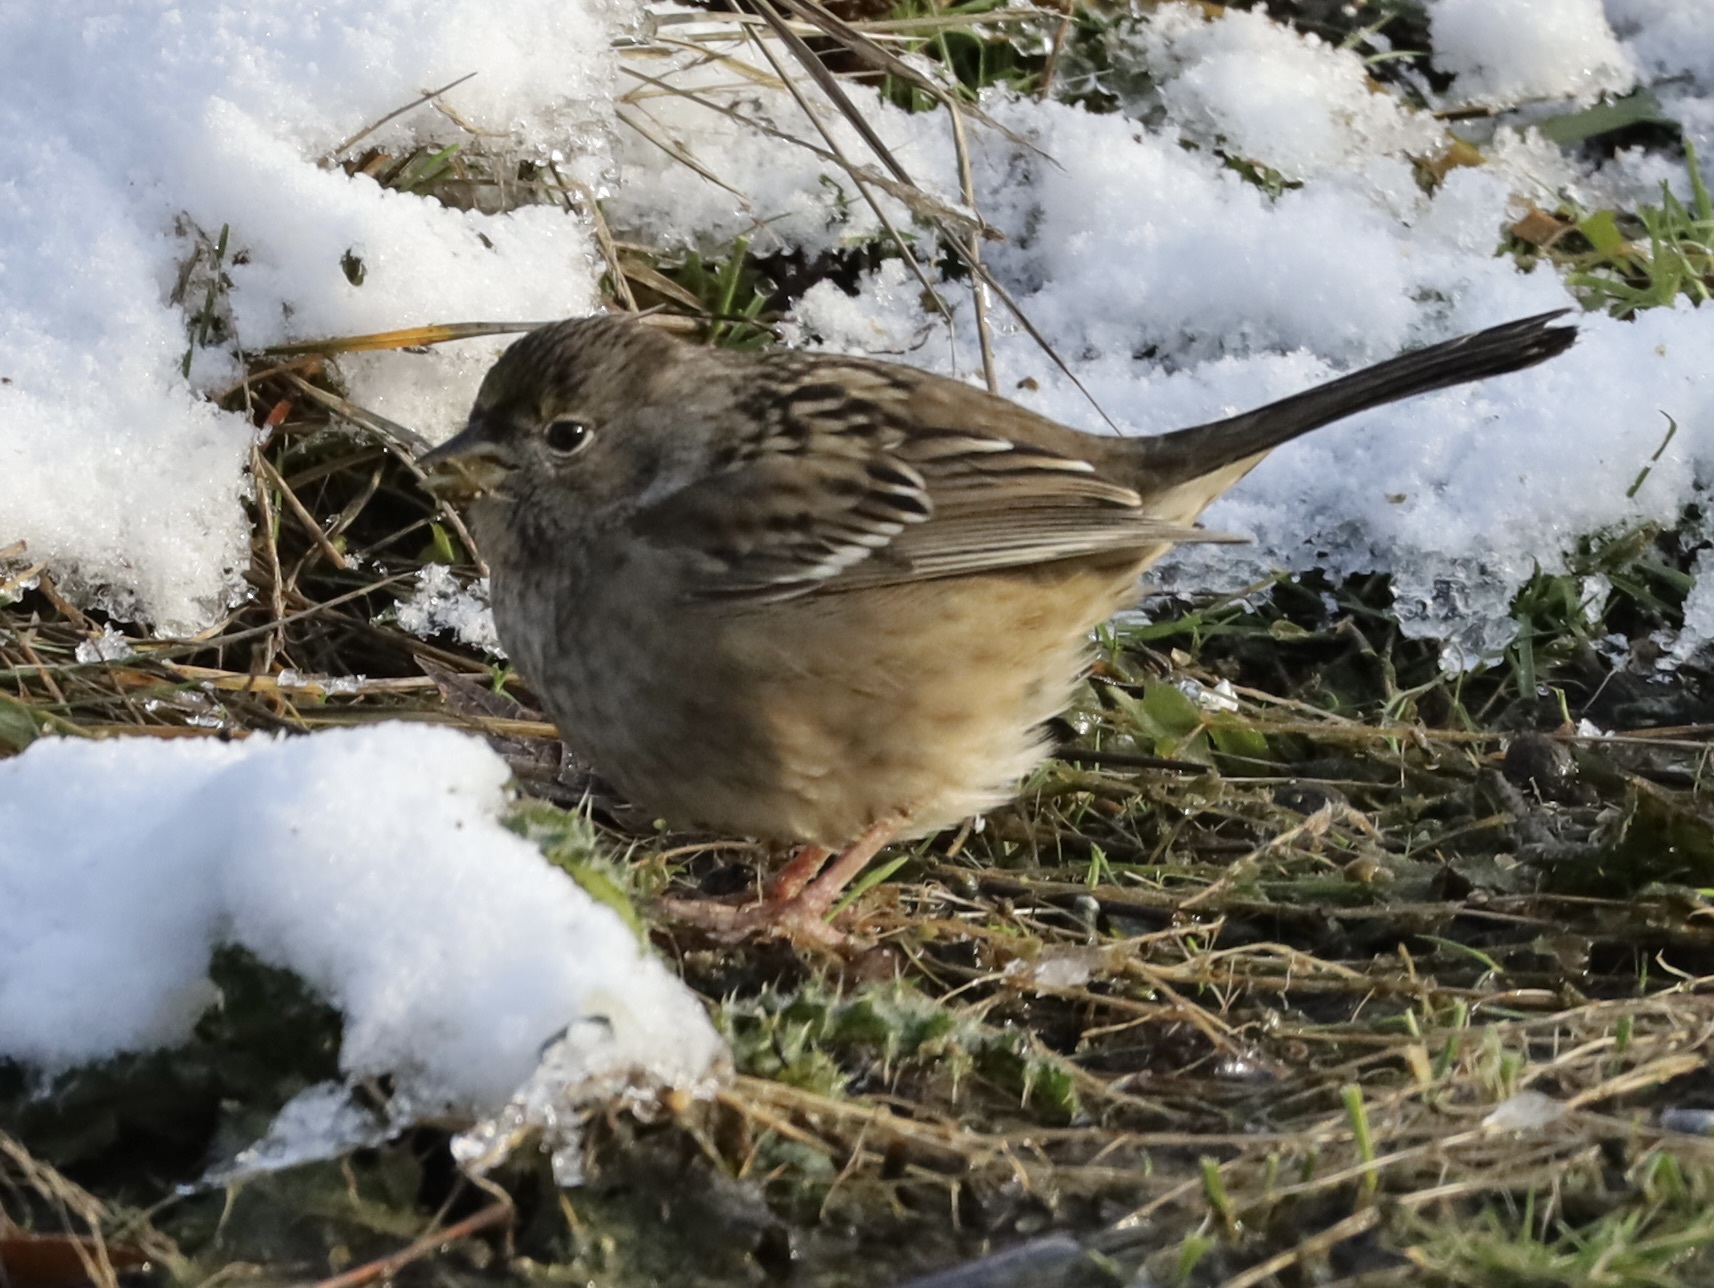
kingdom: Animalia
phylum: Chordata
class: Aves
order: Passeriformes
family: Passerellidae
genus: Zonotrichia
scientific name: Zonotrichia atricapilla
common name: Golden-crowned sparrow
